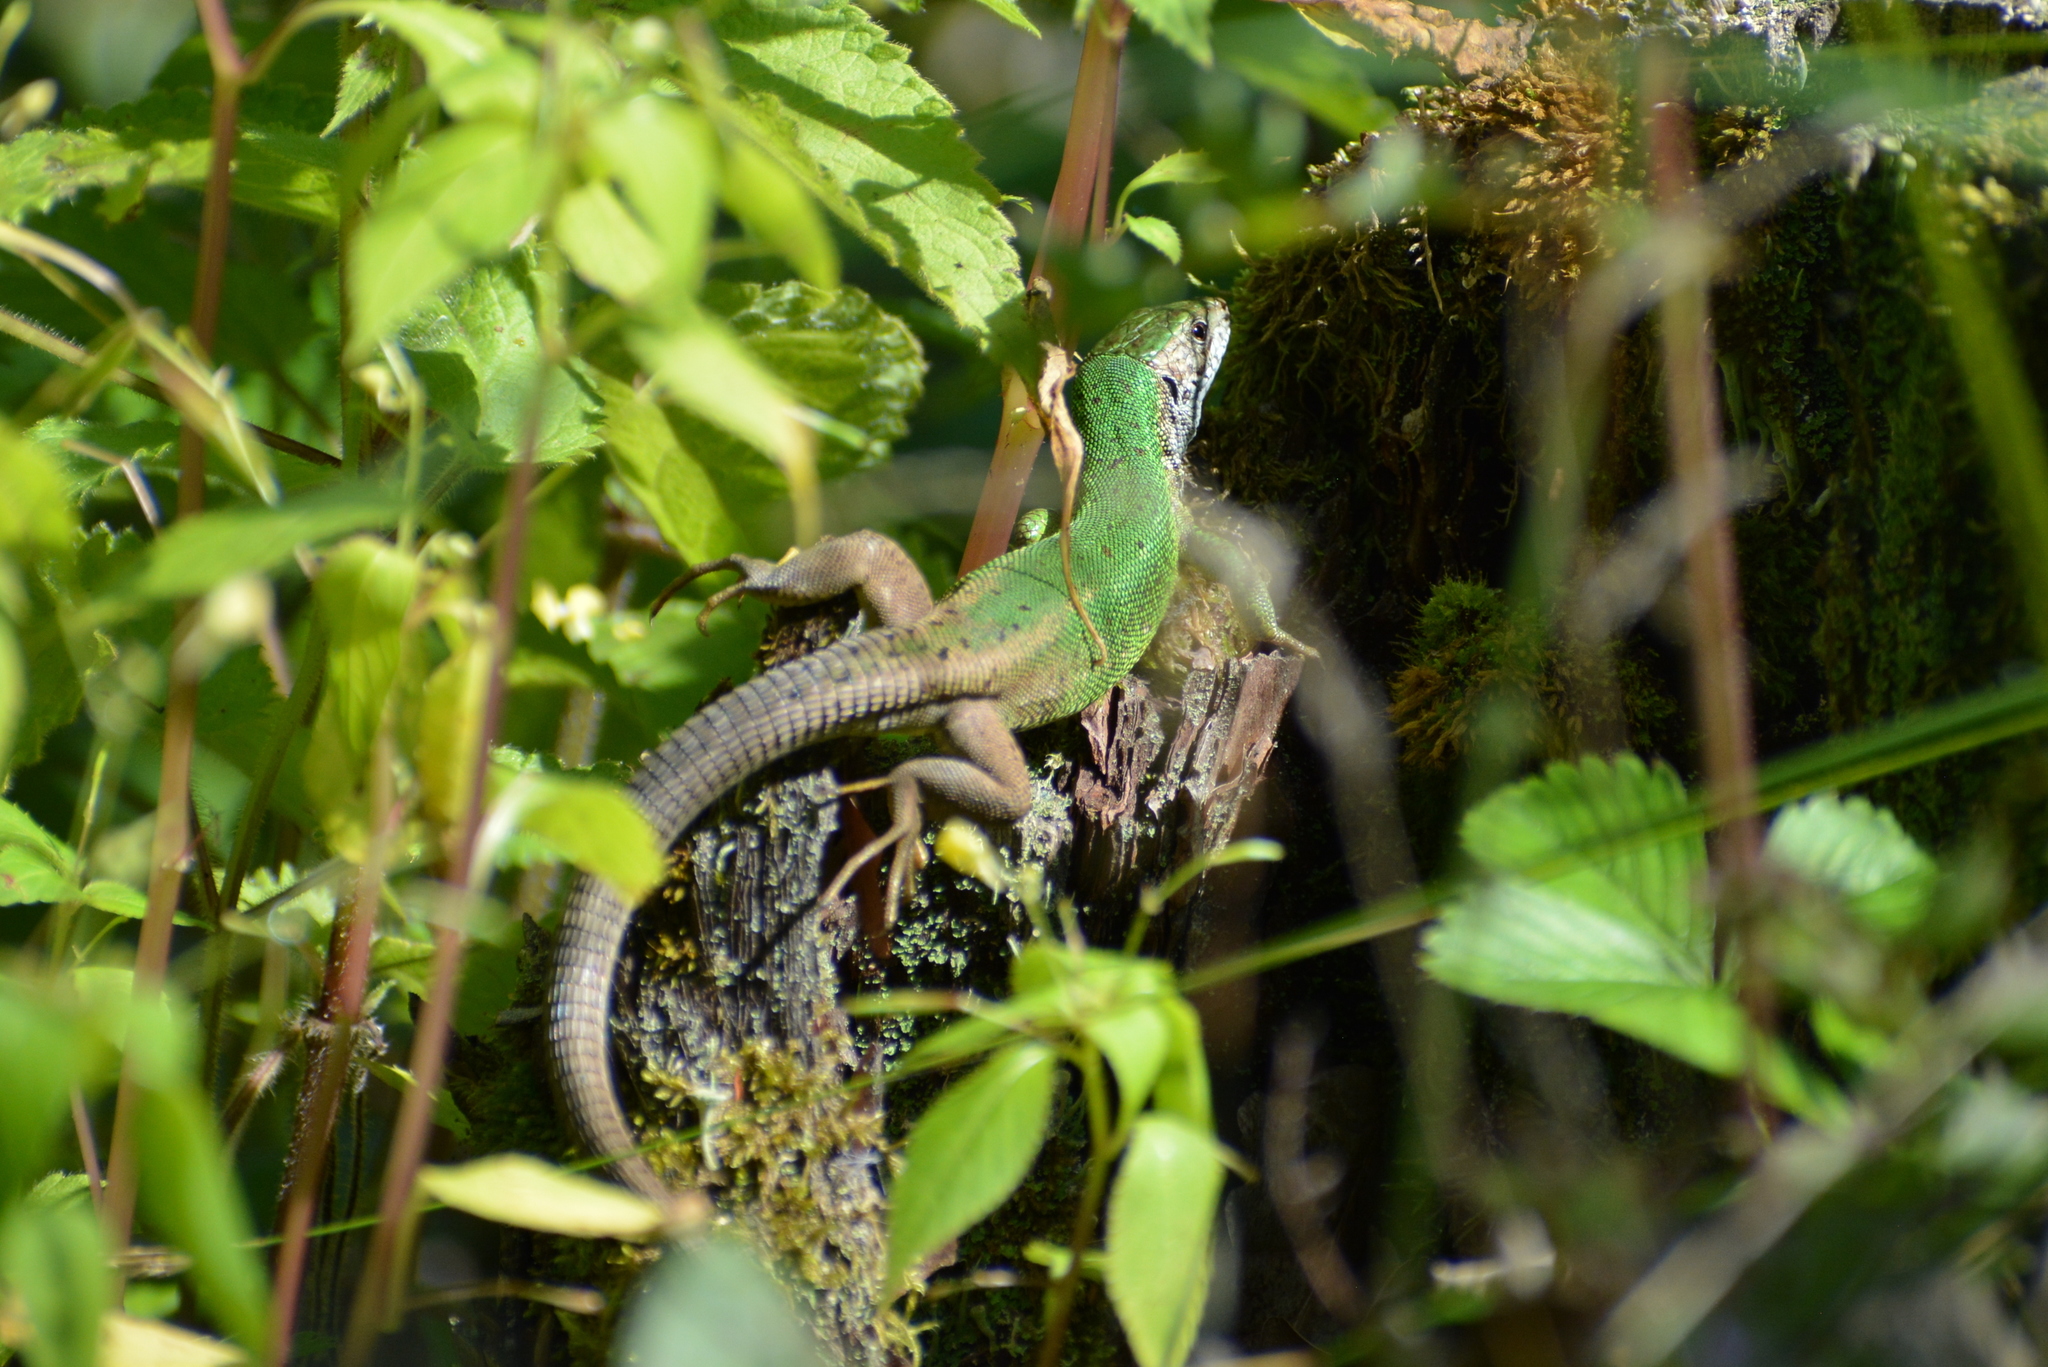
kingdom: Animalia
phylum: Chordata
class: Squamata
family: Lacertidae
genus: Lacerta
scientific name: Lacerta viridis
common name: European green lizard
